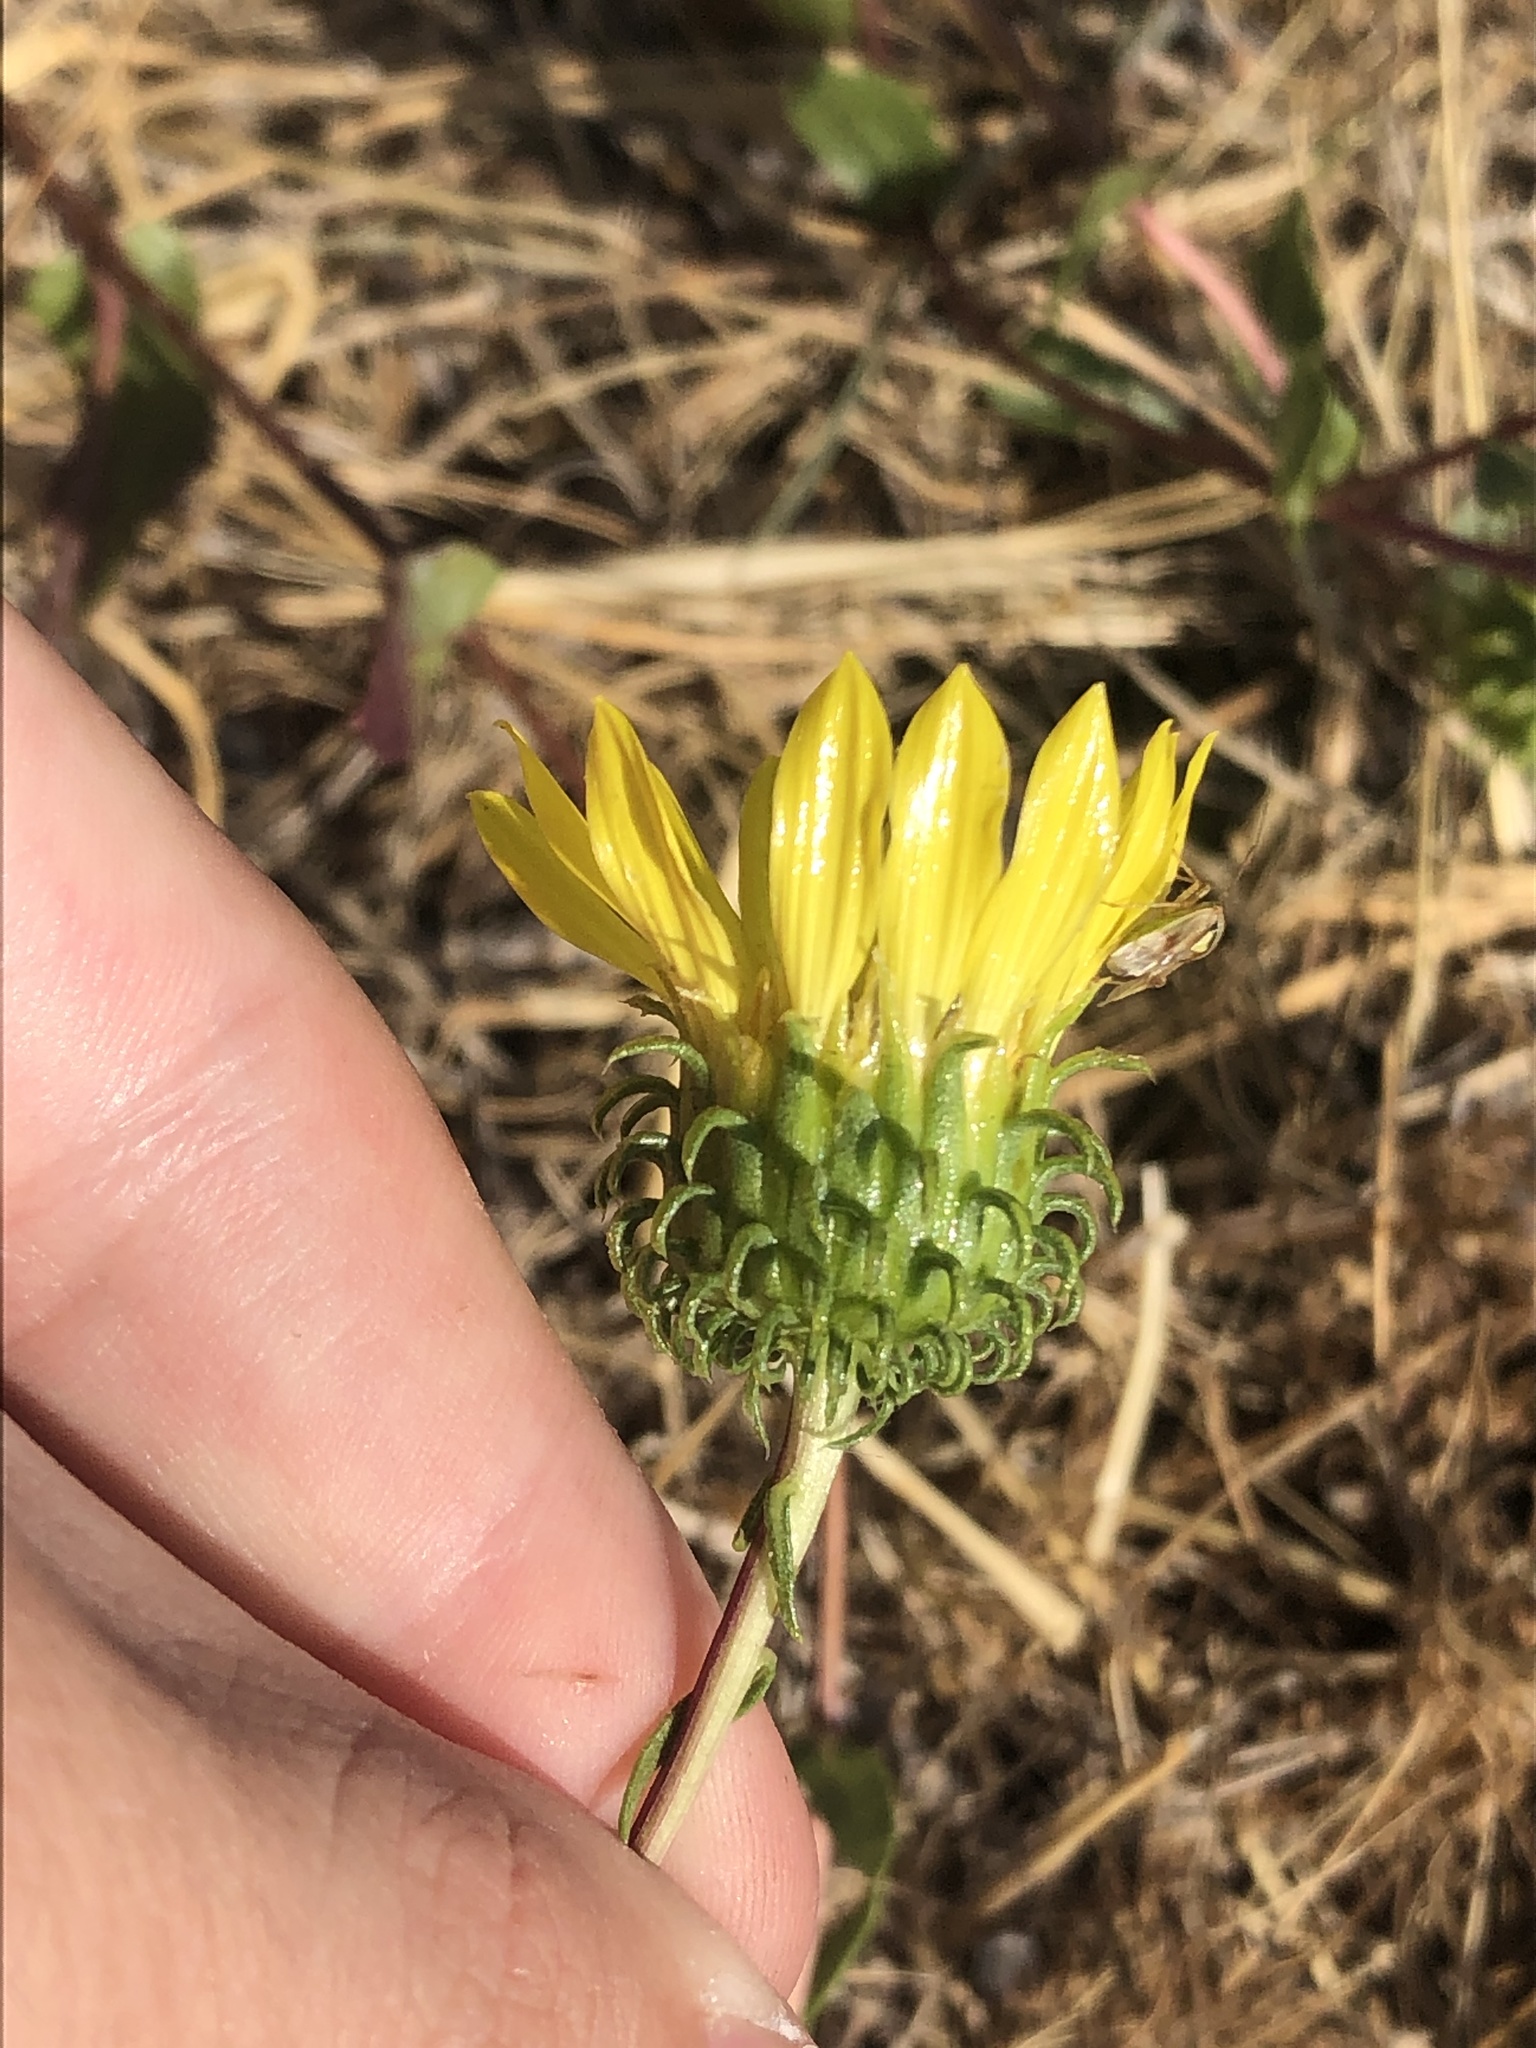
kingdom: Plantae
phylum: Tracheophyta
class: Magnoliopsida
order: Asterales
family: Asteraceae
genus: Grindelia
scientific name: Grindelia hirsutula
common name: Hairy gumweed
